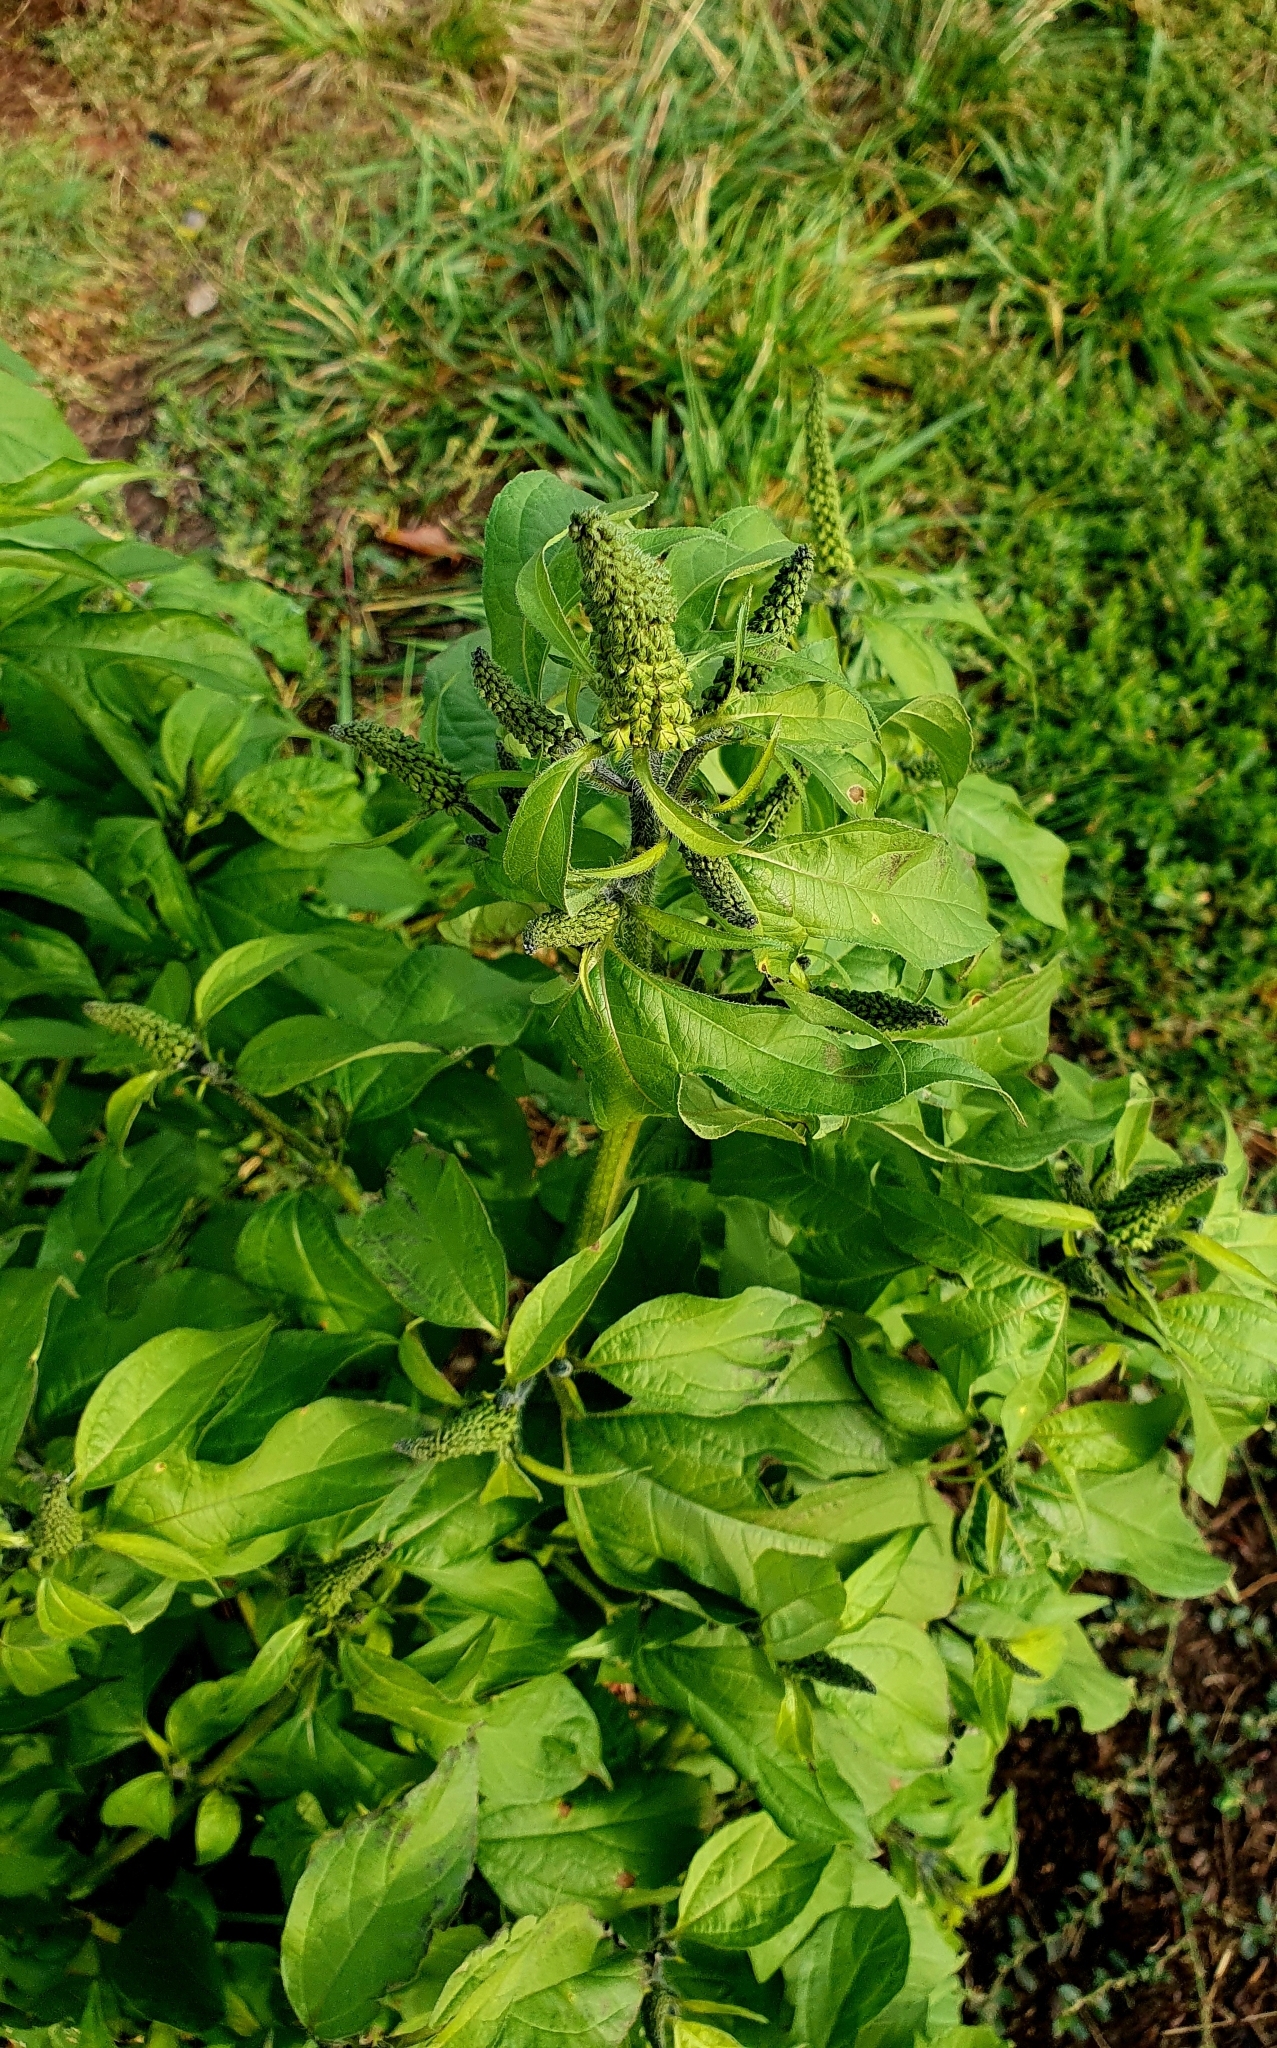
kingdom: Plantae
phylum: Tracheophyta
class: Magnoliopsida
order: Asterales
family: Asteraceae
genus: Ambrosia
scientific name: Ambrosia trifida
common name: Giant ragweed
